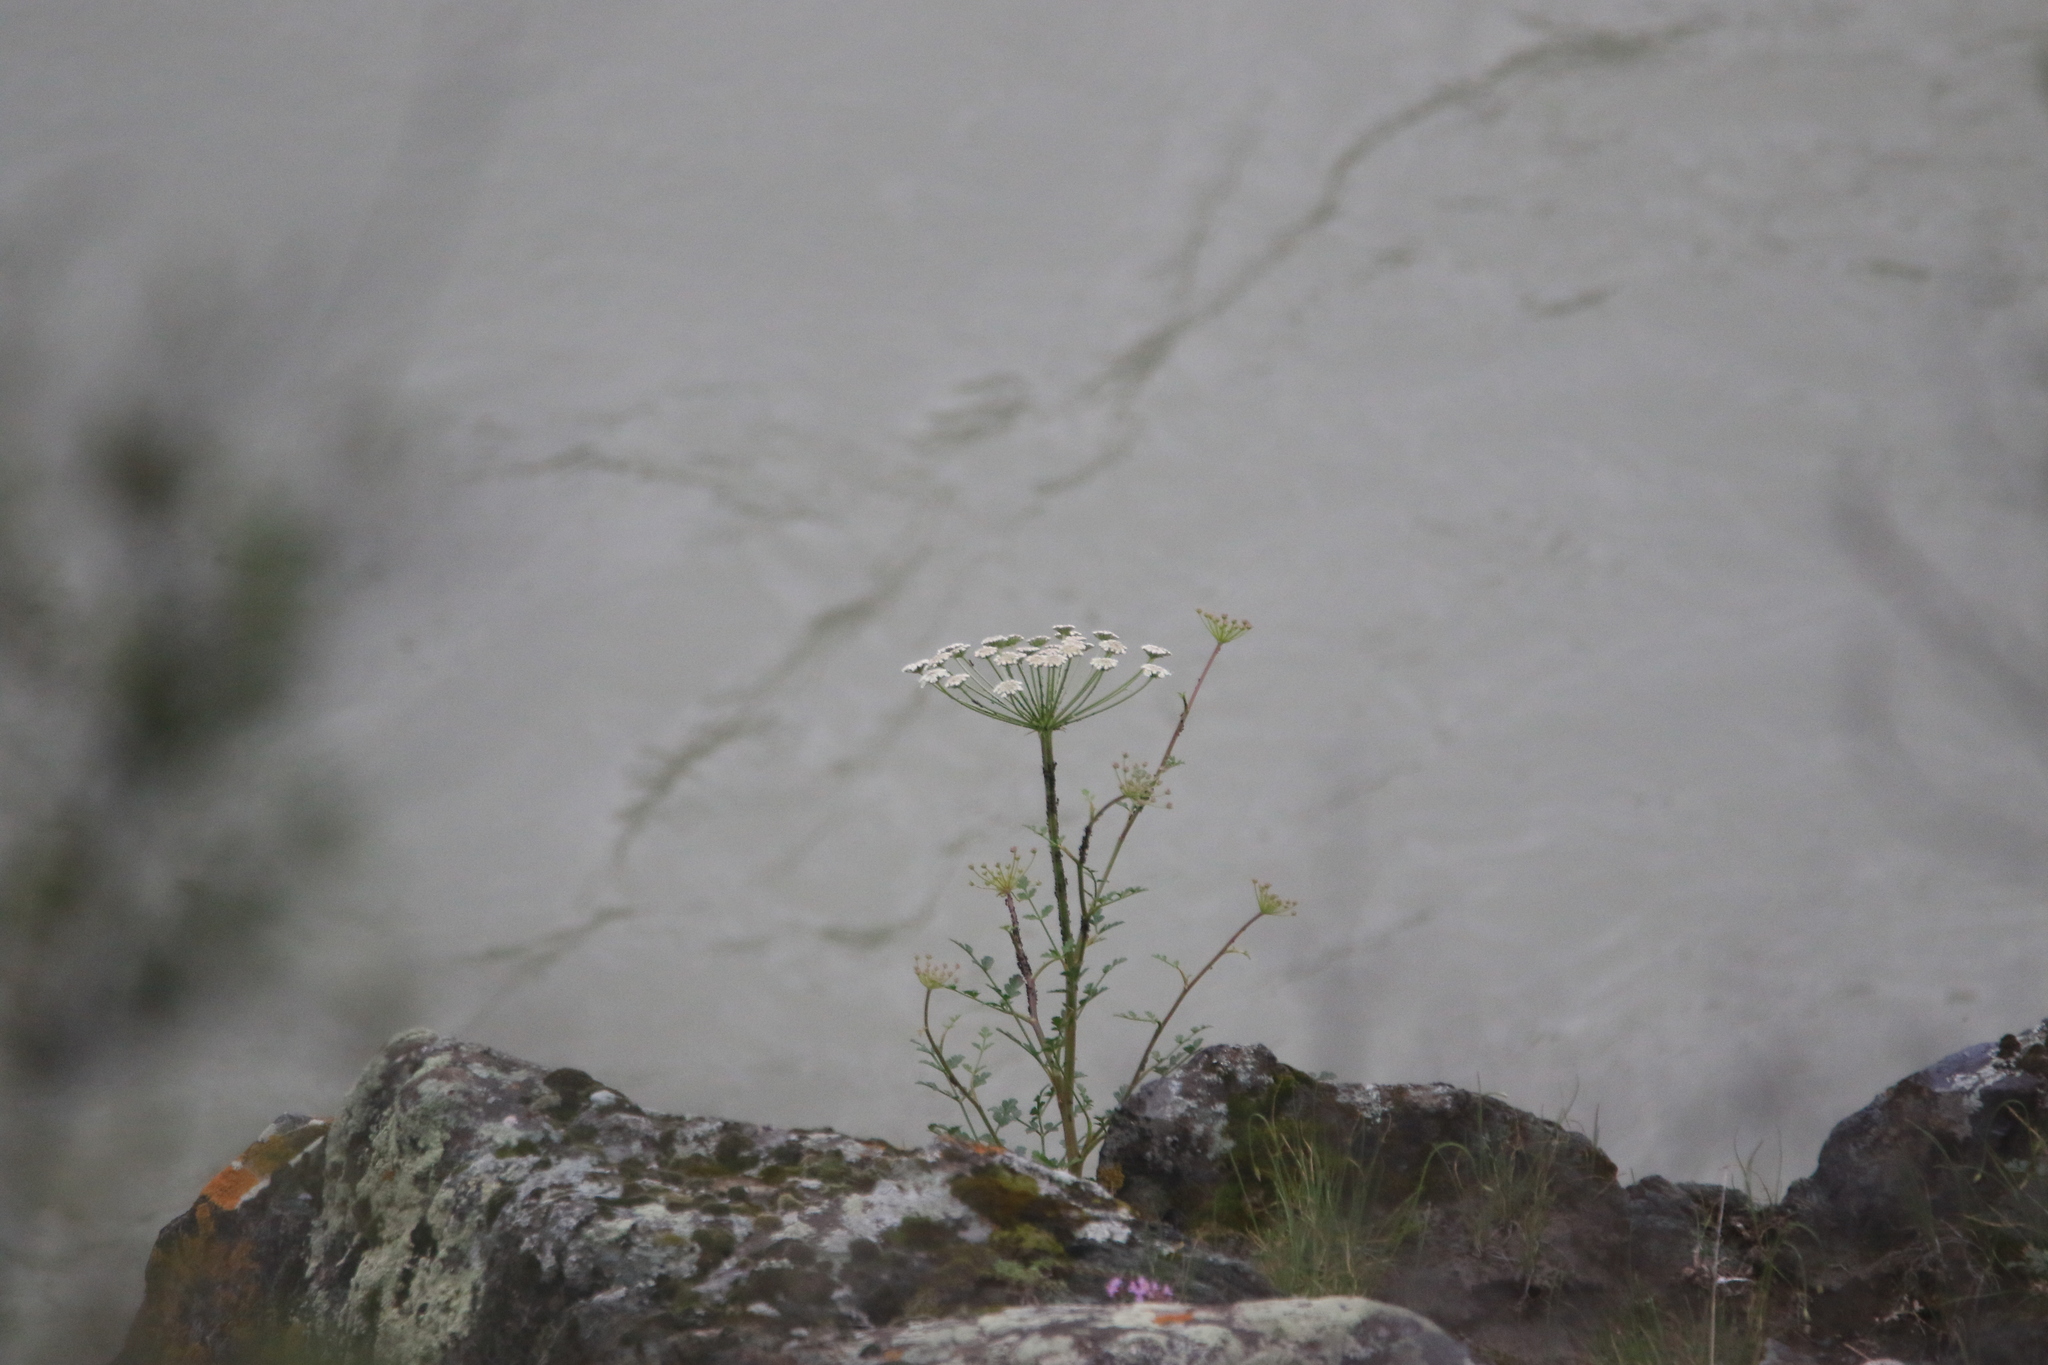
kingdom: Plantae
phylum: Tracheophyta
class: Magnoliopsida
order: Apiales
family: Apiaceae
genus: Seseli
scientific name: Seseli buchtormense
